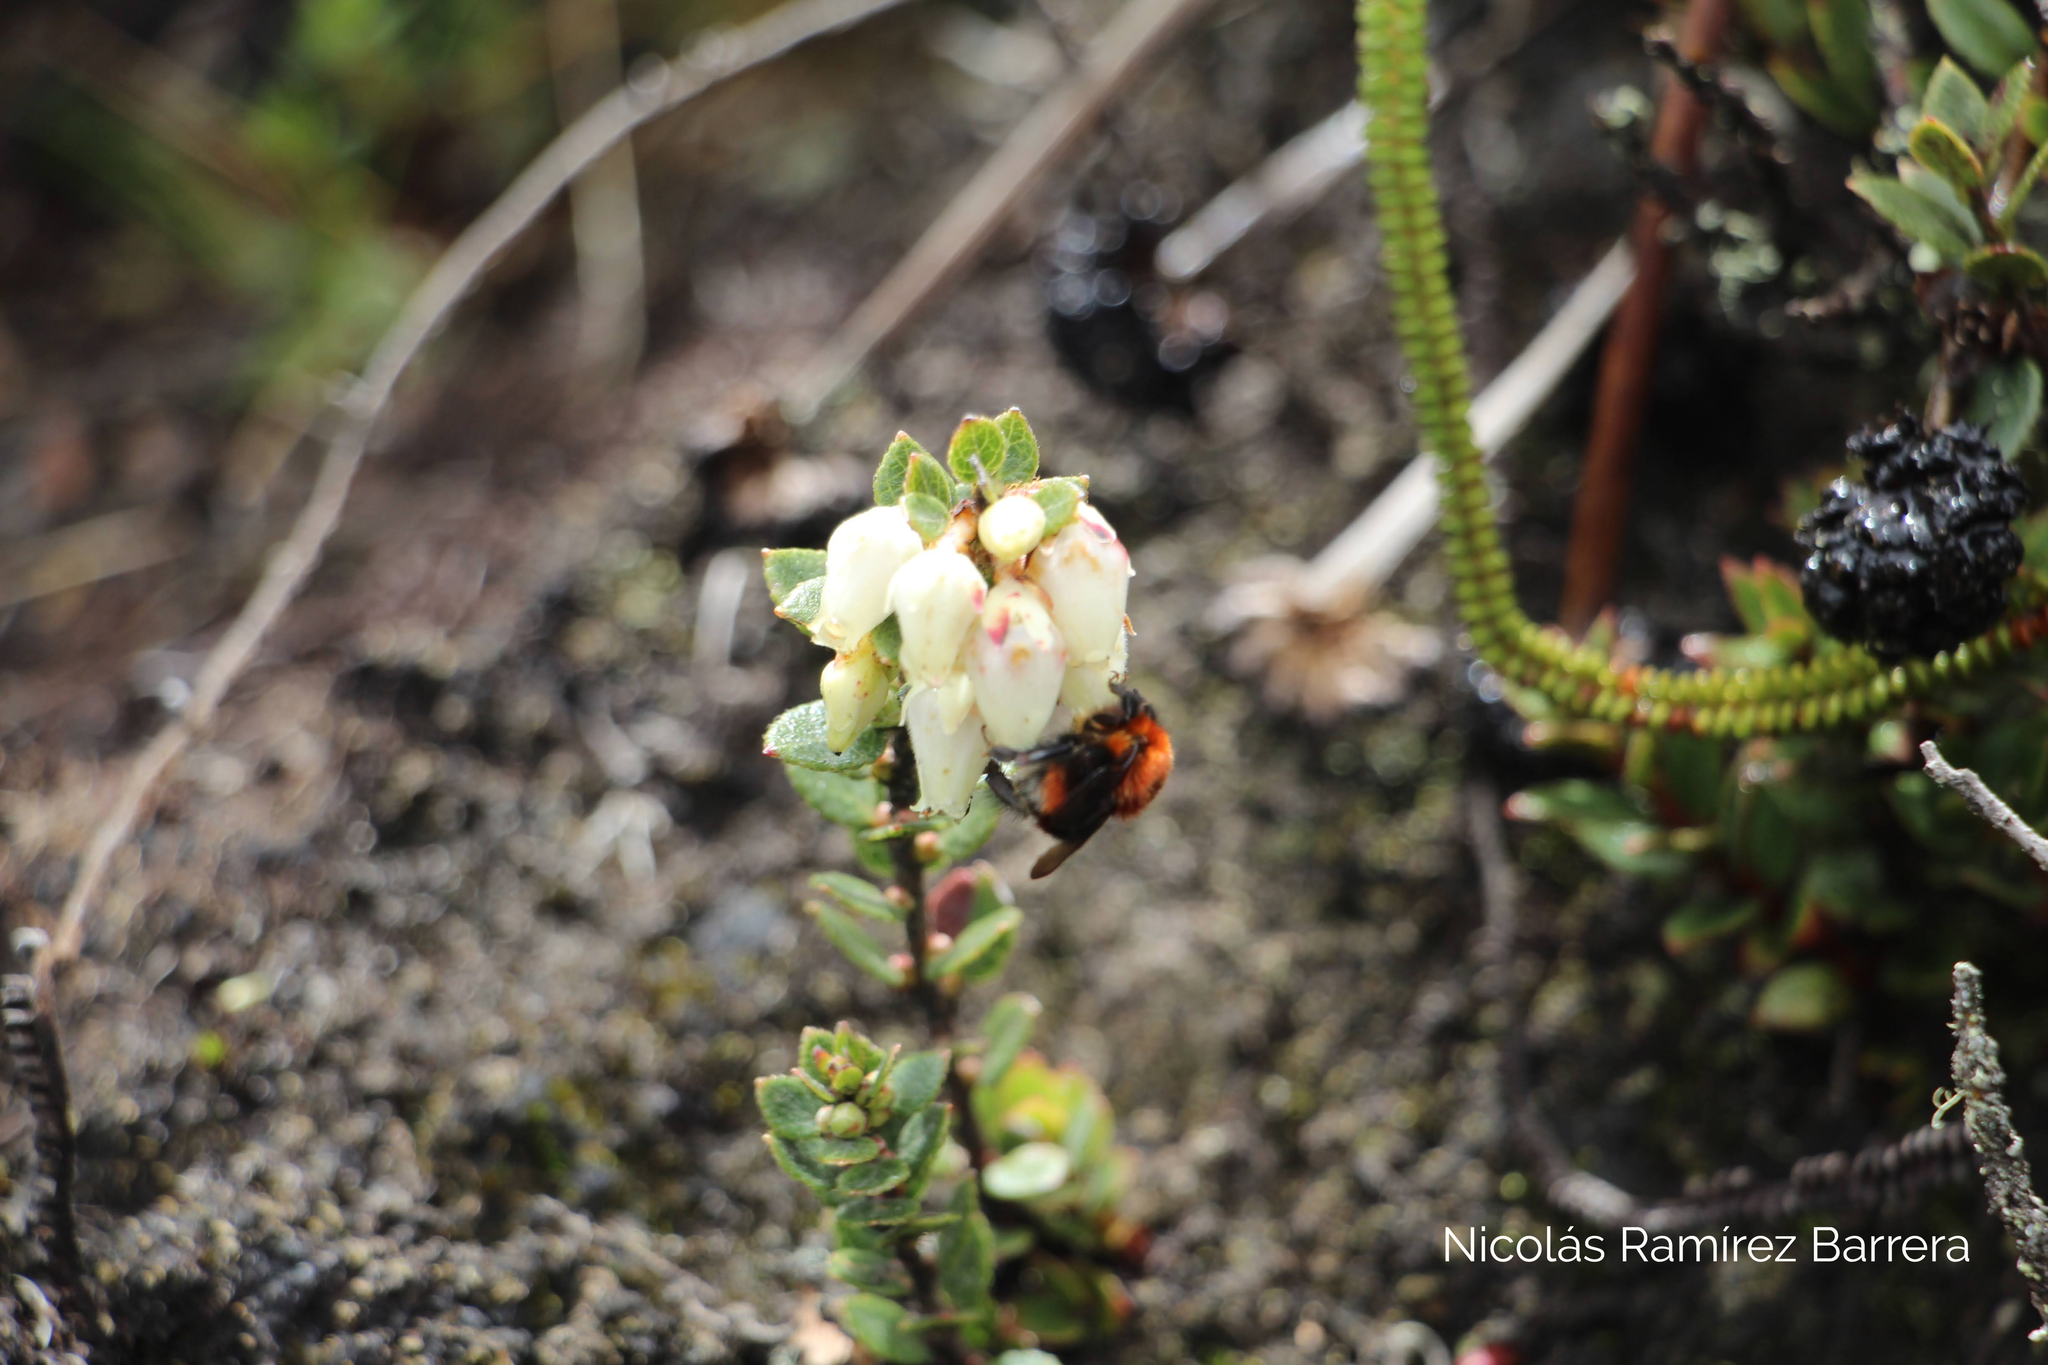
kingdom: Animalia
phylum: Arthropoda
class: Insecta
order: Hymenoptera
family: Apidae
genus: Bombus
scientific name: Bombus rubicundus
